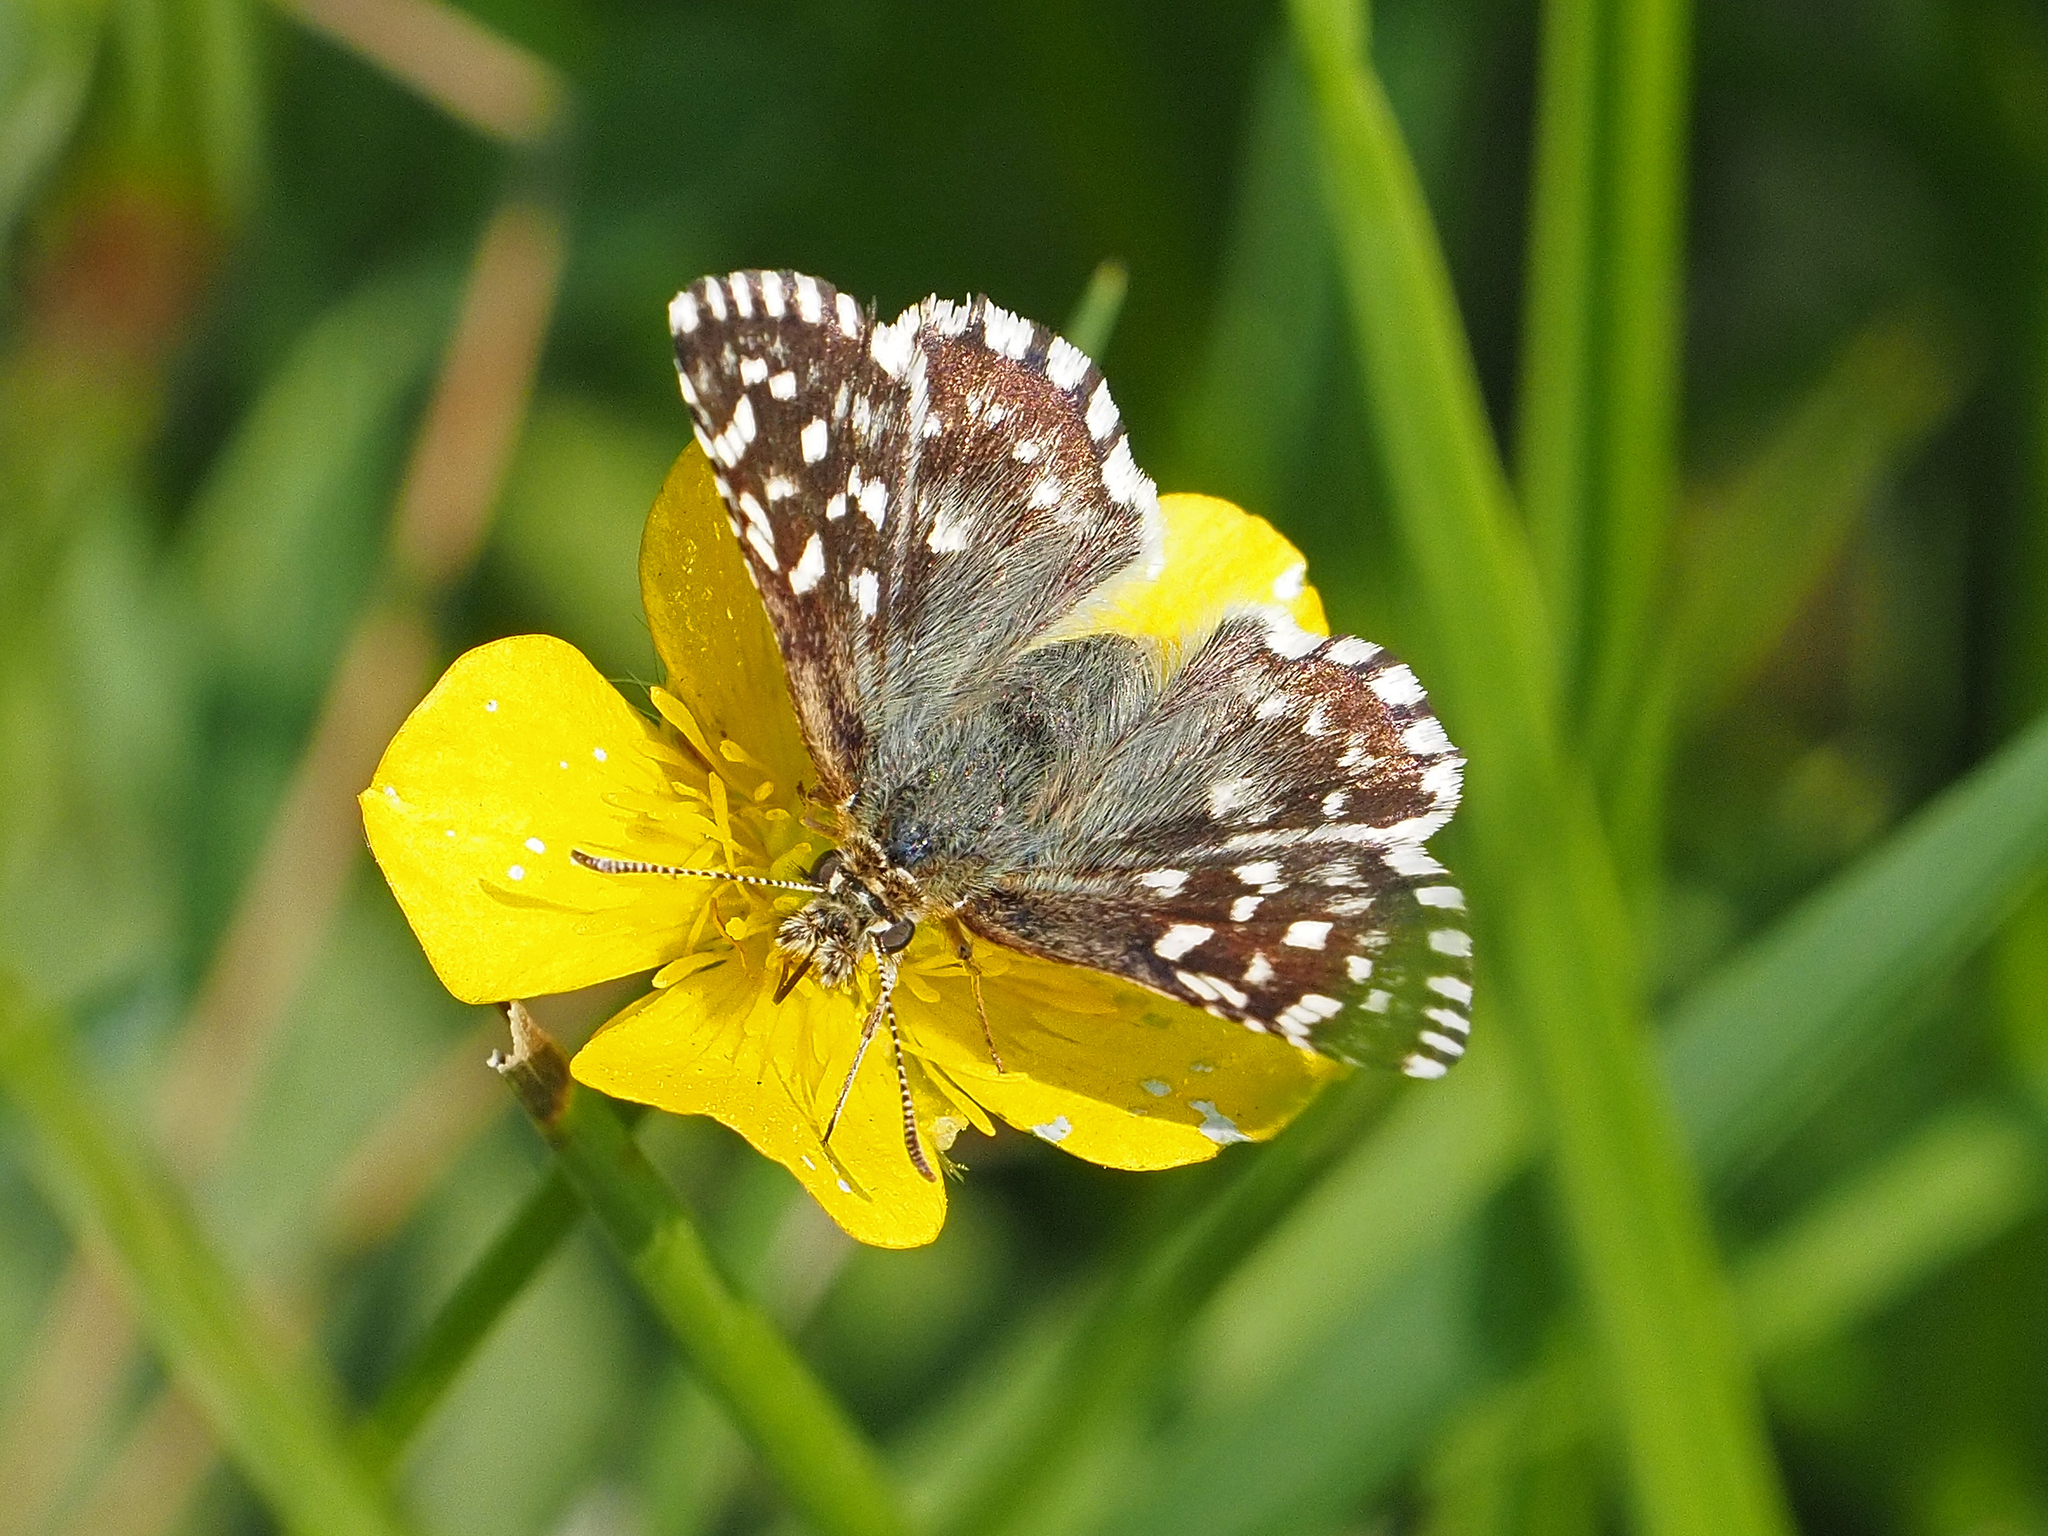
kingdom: Animalia
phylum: Arthropoda
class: Insecta
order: Lepidoptera
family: Hesperiidae
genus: Pyrgus
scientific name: Pyrgus malvae
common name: Grizzled skipper
